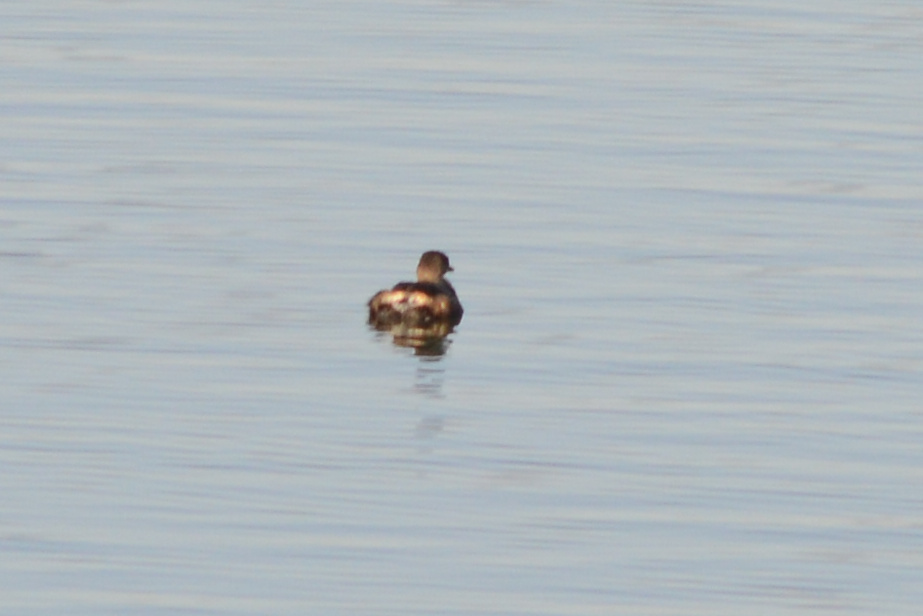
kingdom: Animalia
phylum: Chordata
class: Aves
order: Podicipediformes
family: Podicipedidae
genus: Podilymbus
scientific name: Podilymbus podiceps
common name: Pied-billed grebe
